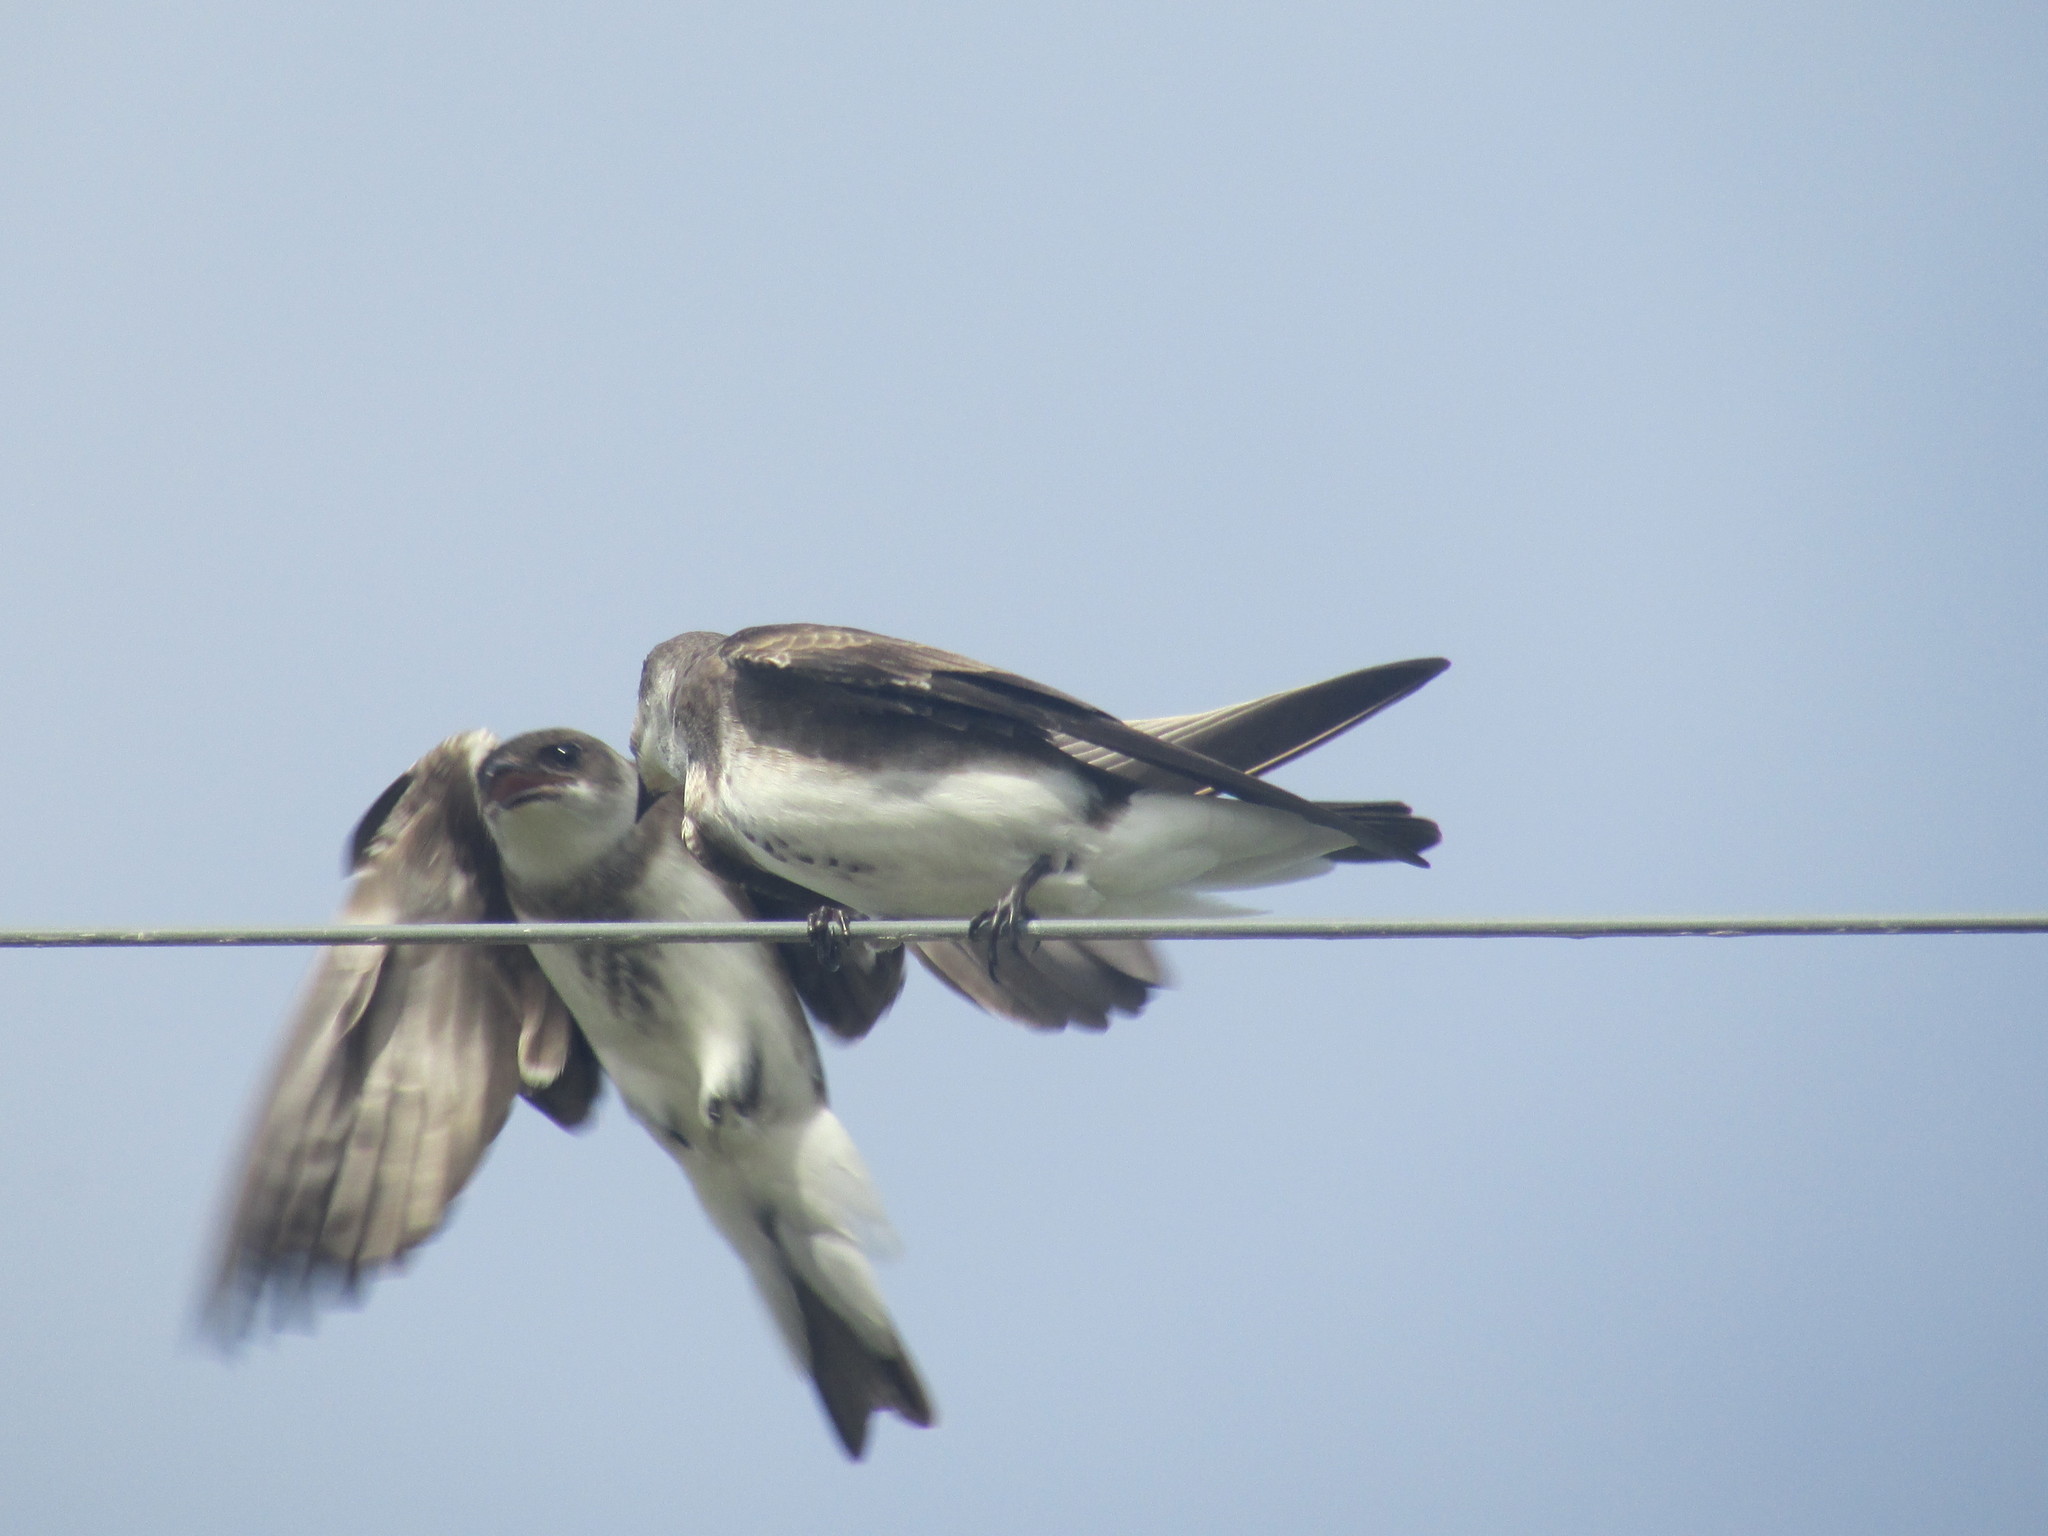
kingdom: Animalia
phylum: Chordata
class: Aves
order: Passeriformes
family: Hirundinidae
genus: Progne
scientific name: Progne tapera
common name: Brown-chested martin
